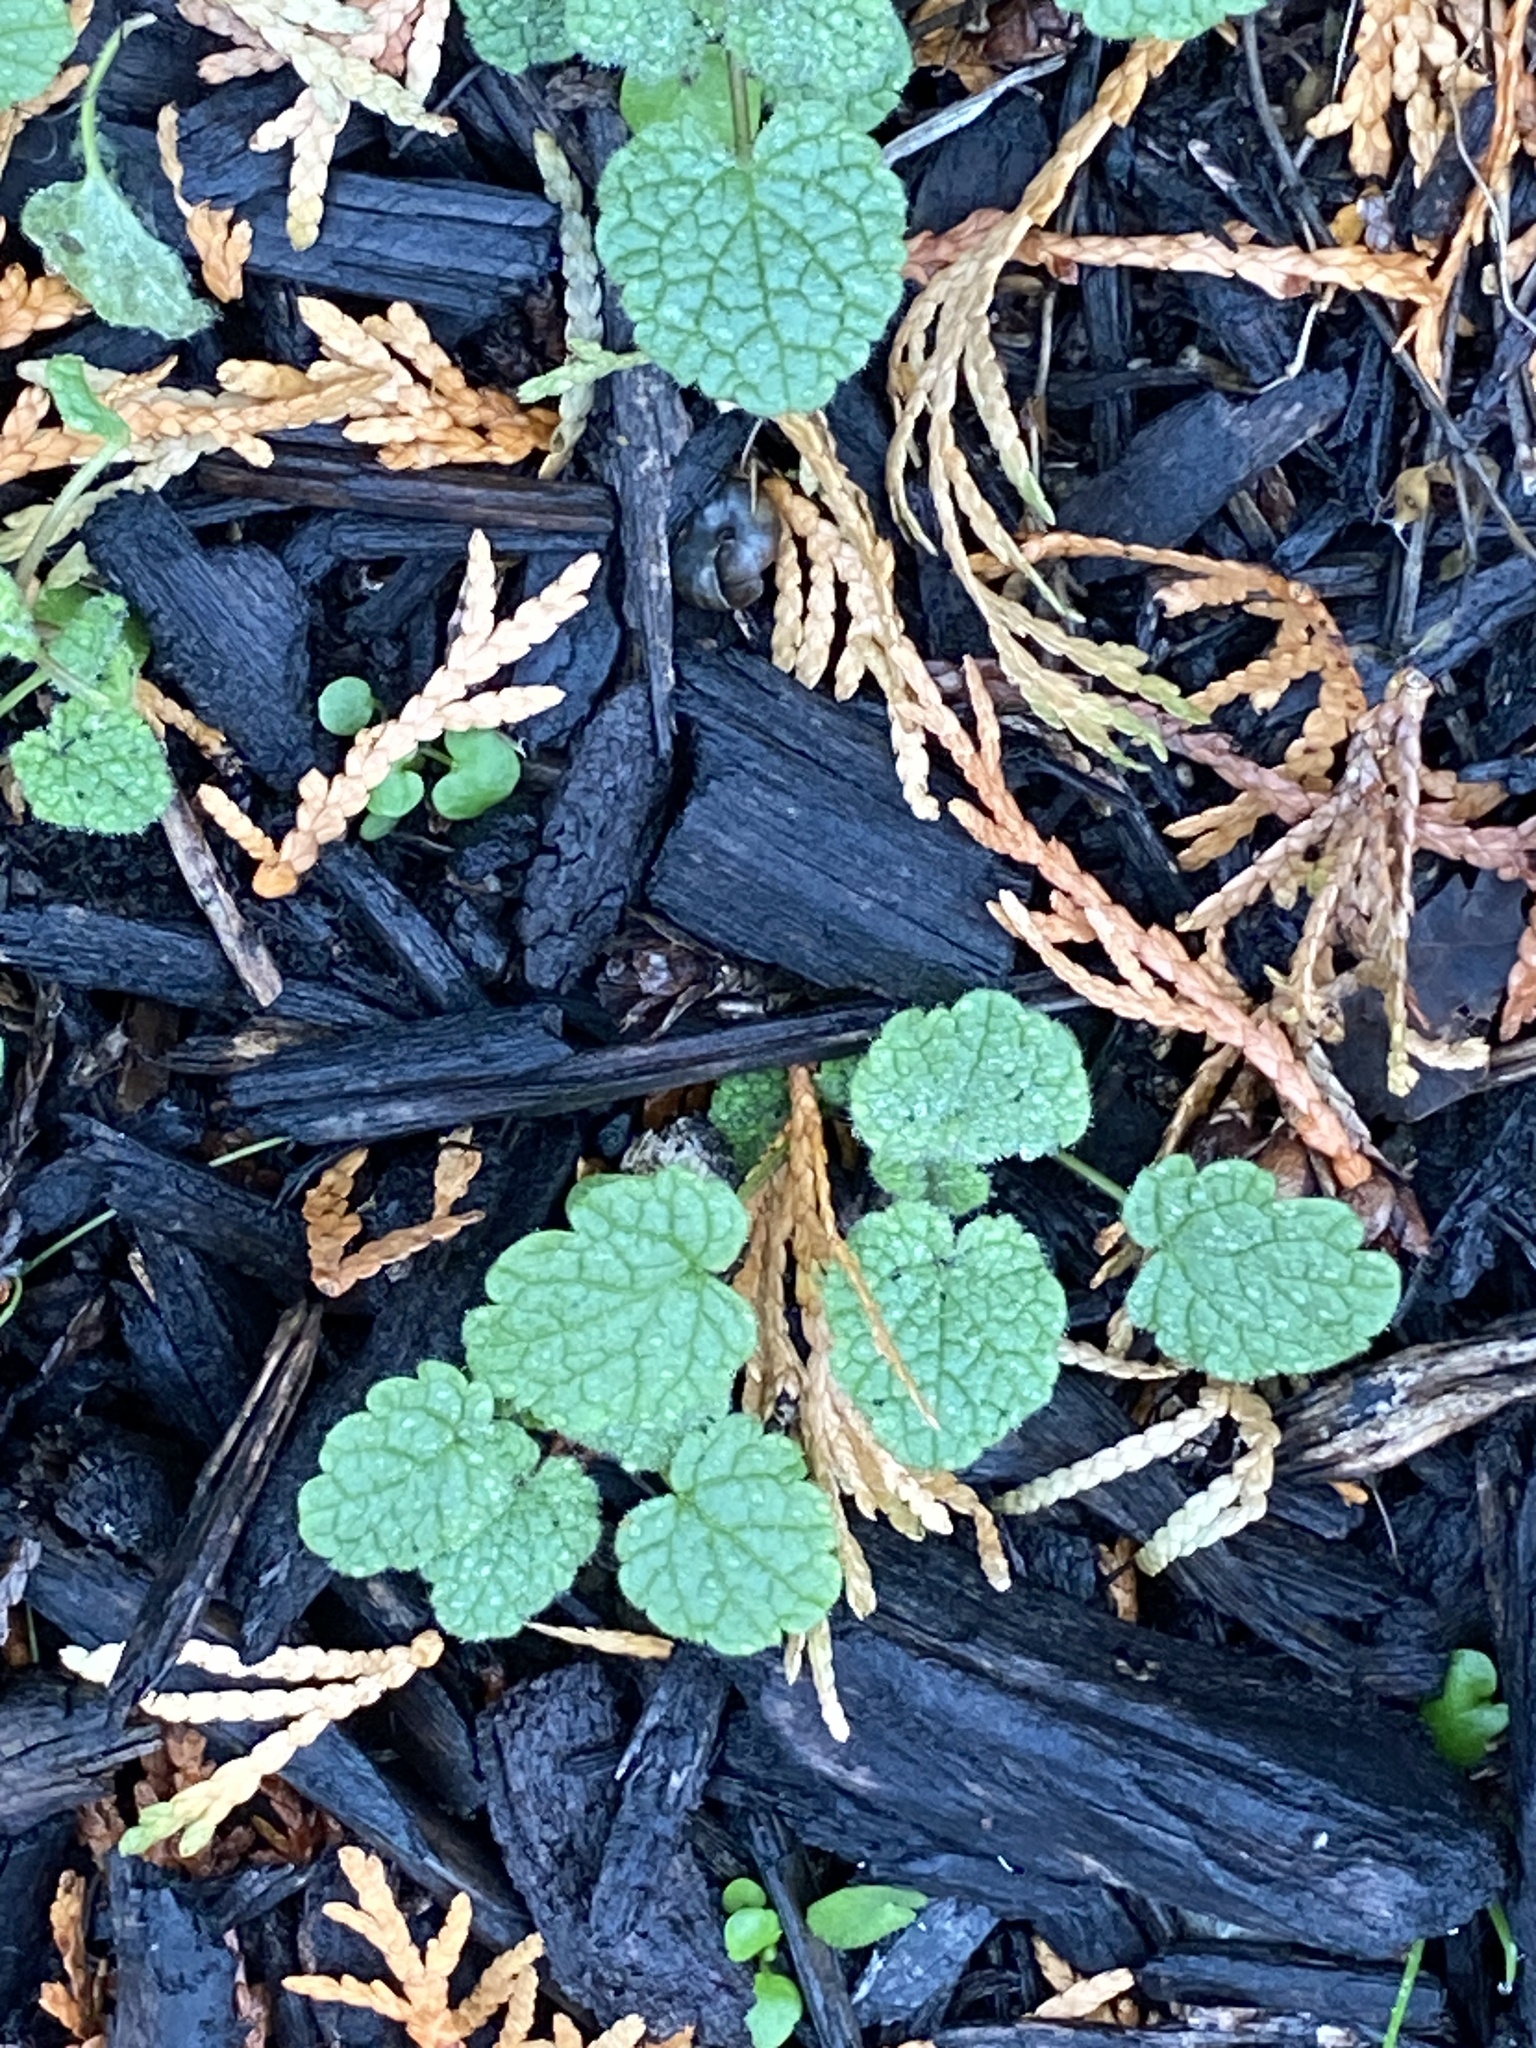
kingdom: Plantae
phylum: Tracheophyta
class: Magnoliopsida
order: Lamiales
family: Lamiaceae
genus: Lamium
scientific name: Lamium purpureum
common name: Red dead-nettle
